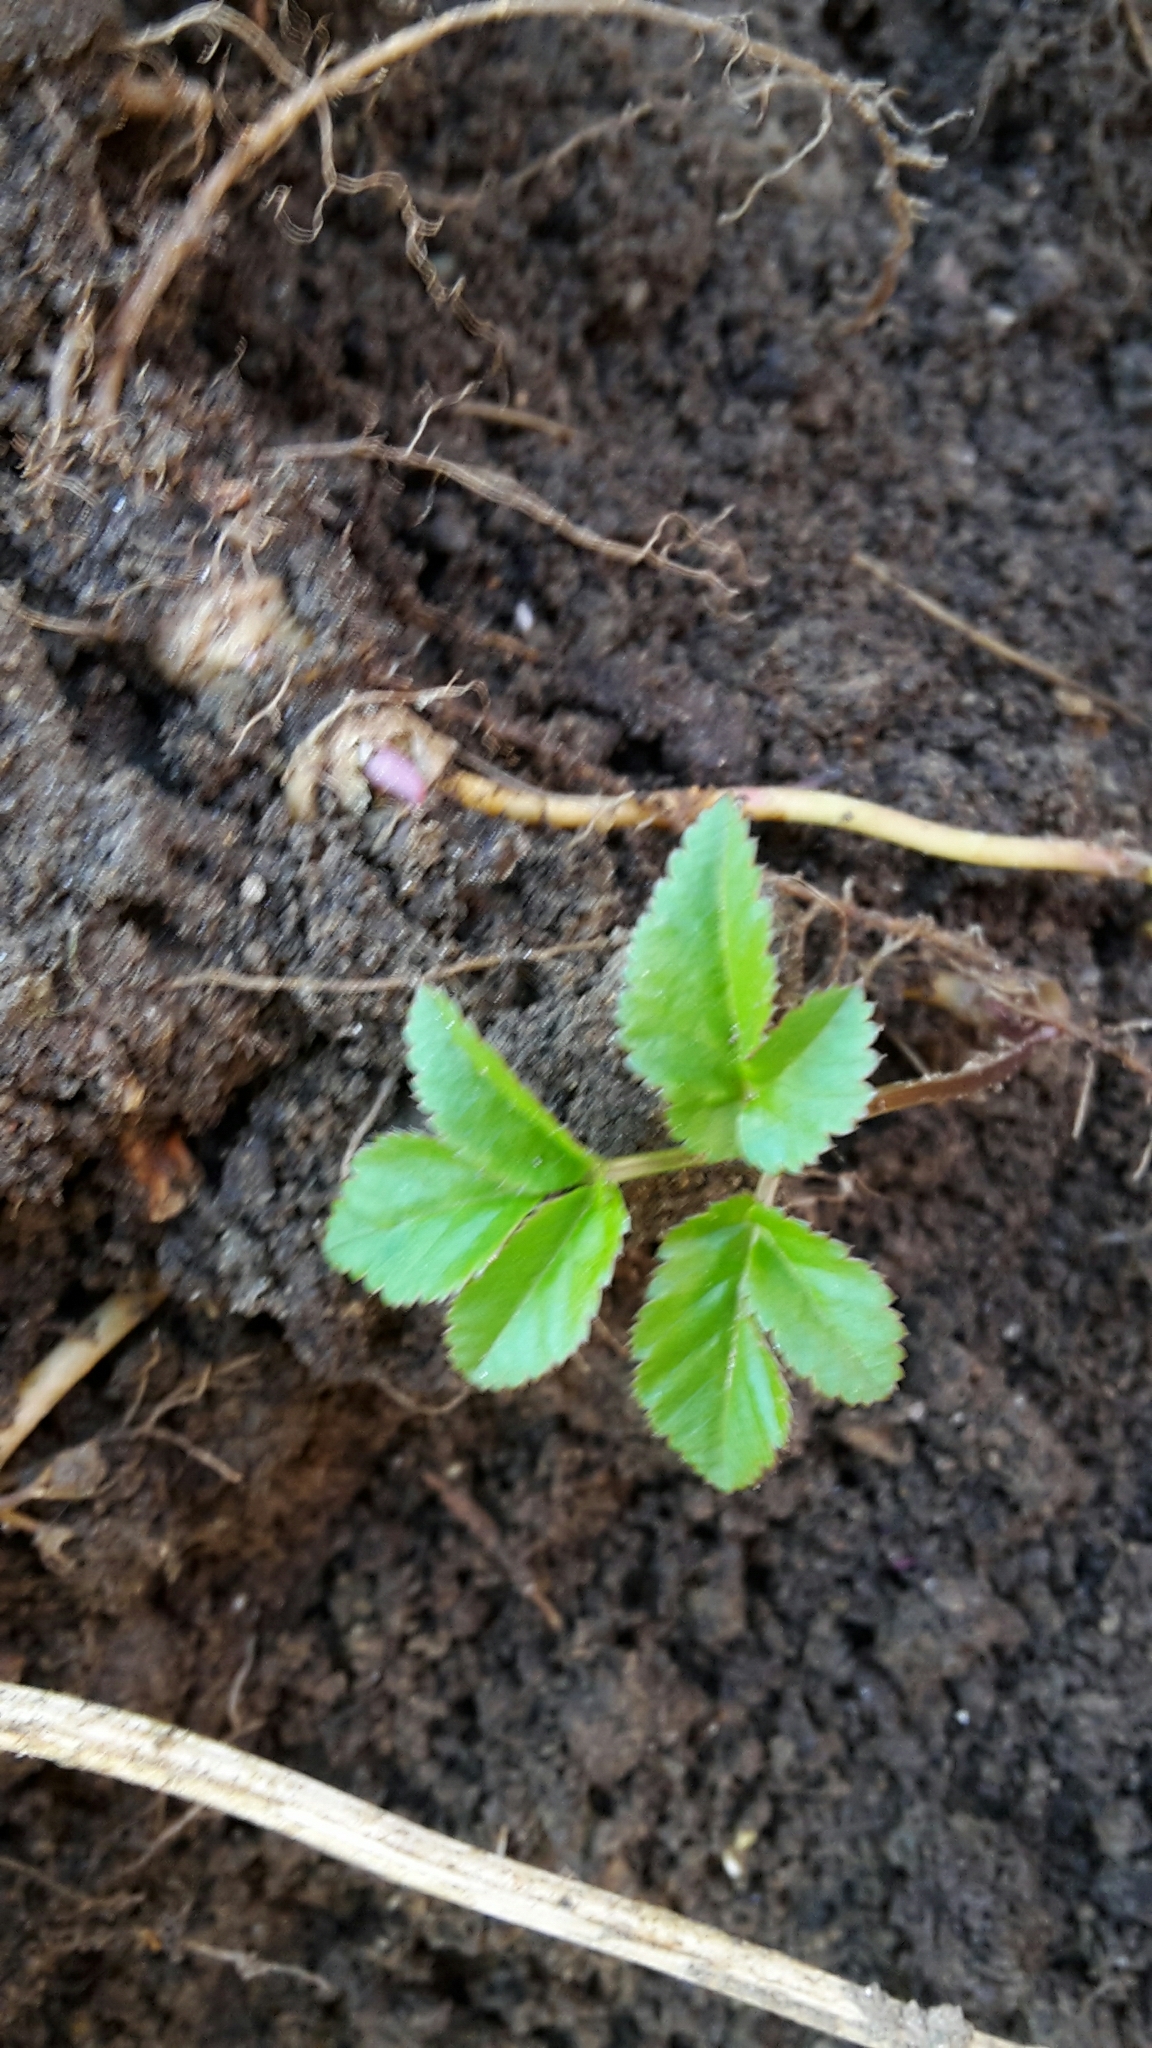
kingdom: Plantae
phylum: Tracheophyta
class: Magnoliopsida
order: Apiales
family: Apiaceae
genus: Aegopodium
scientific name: Aegopodium podagraria
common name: Ground-elder
